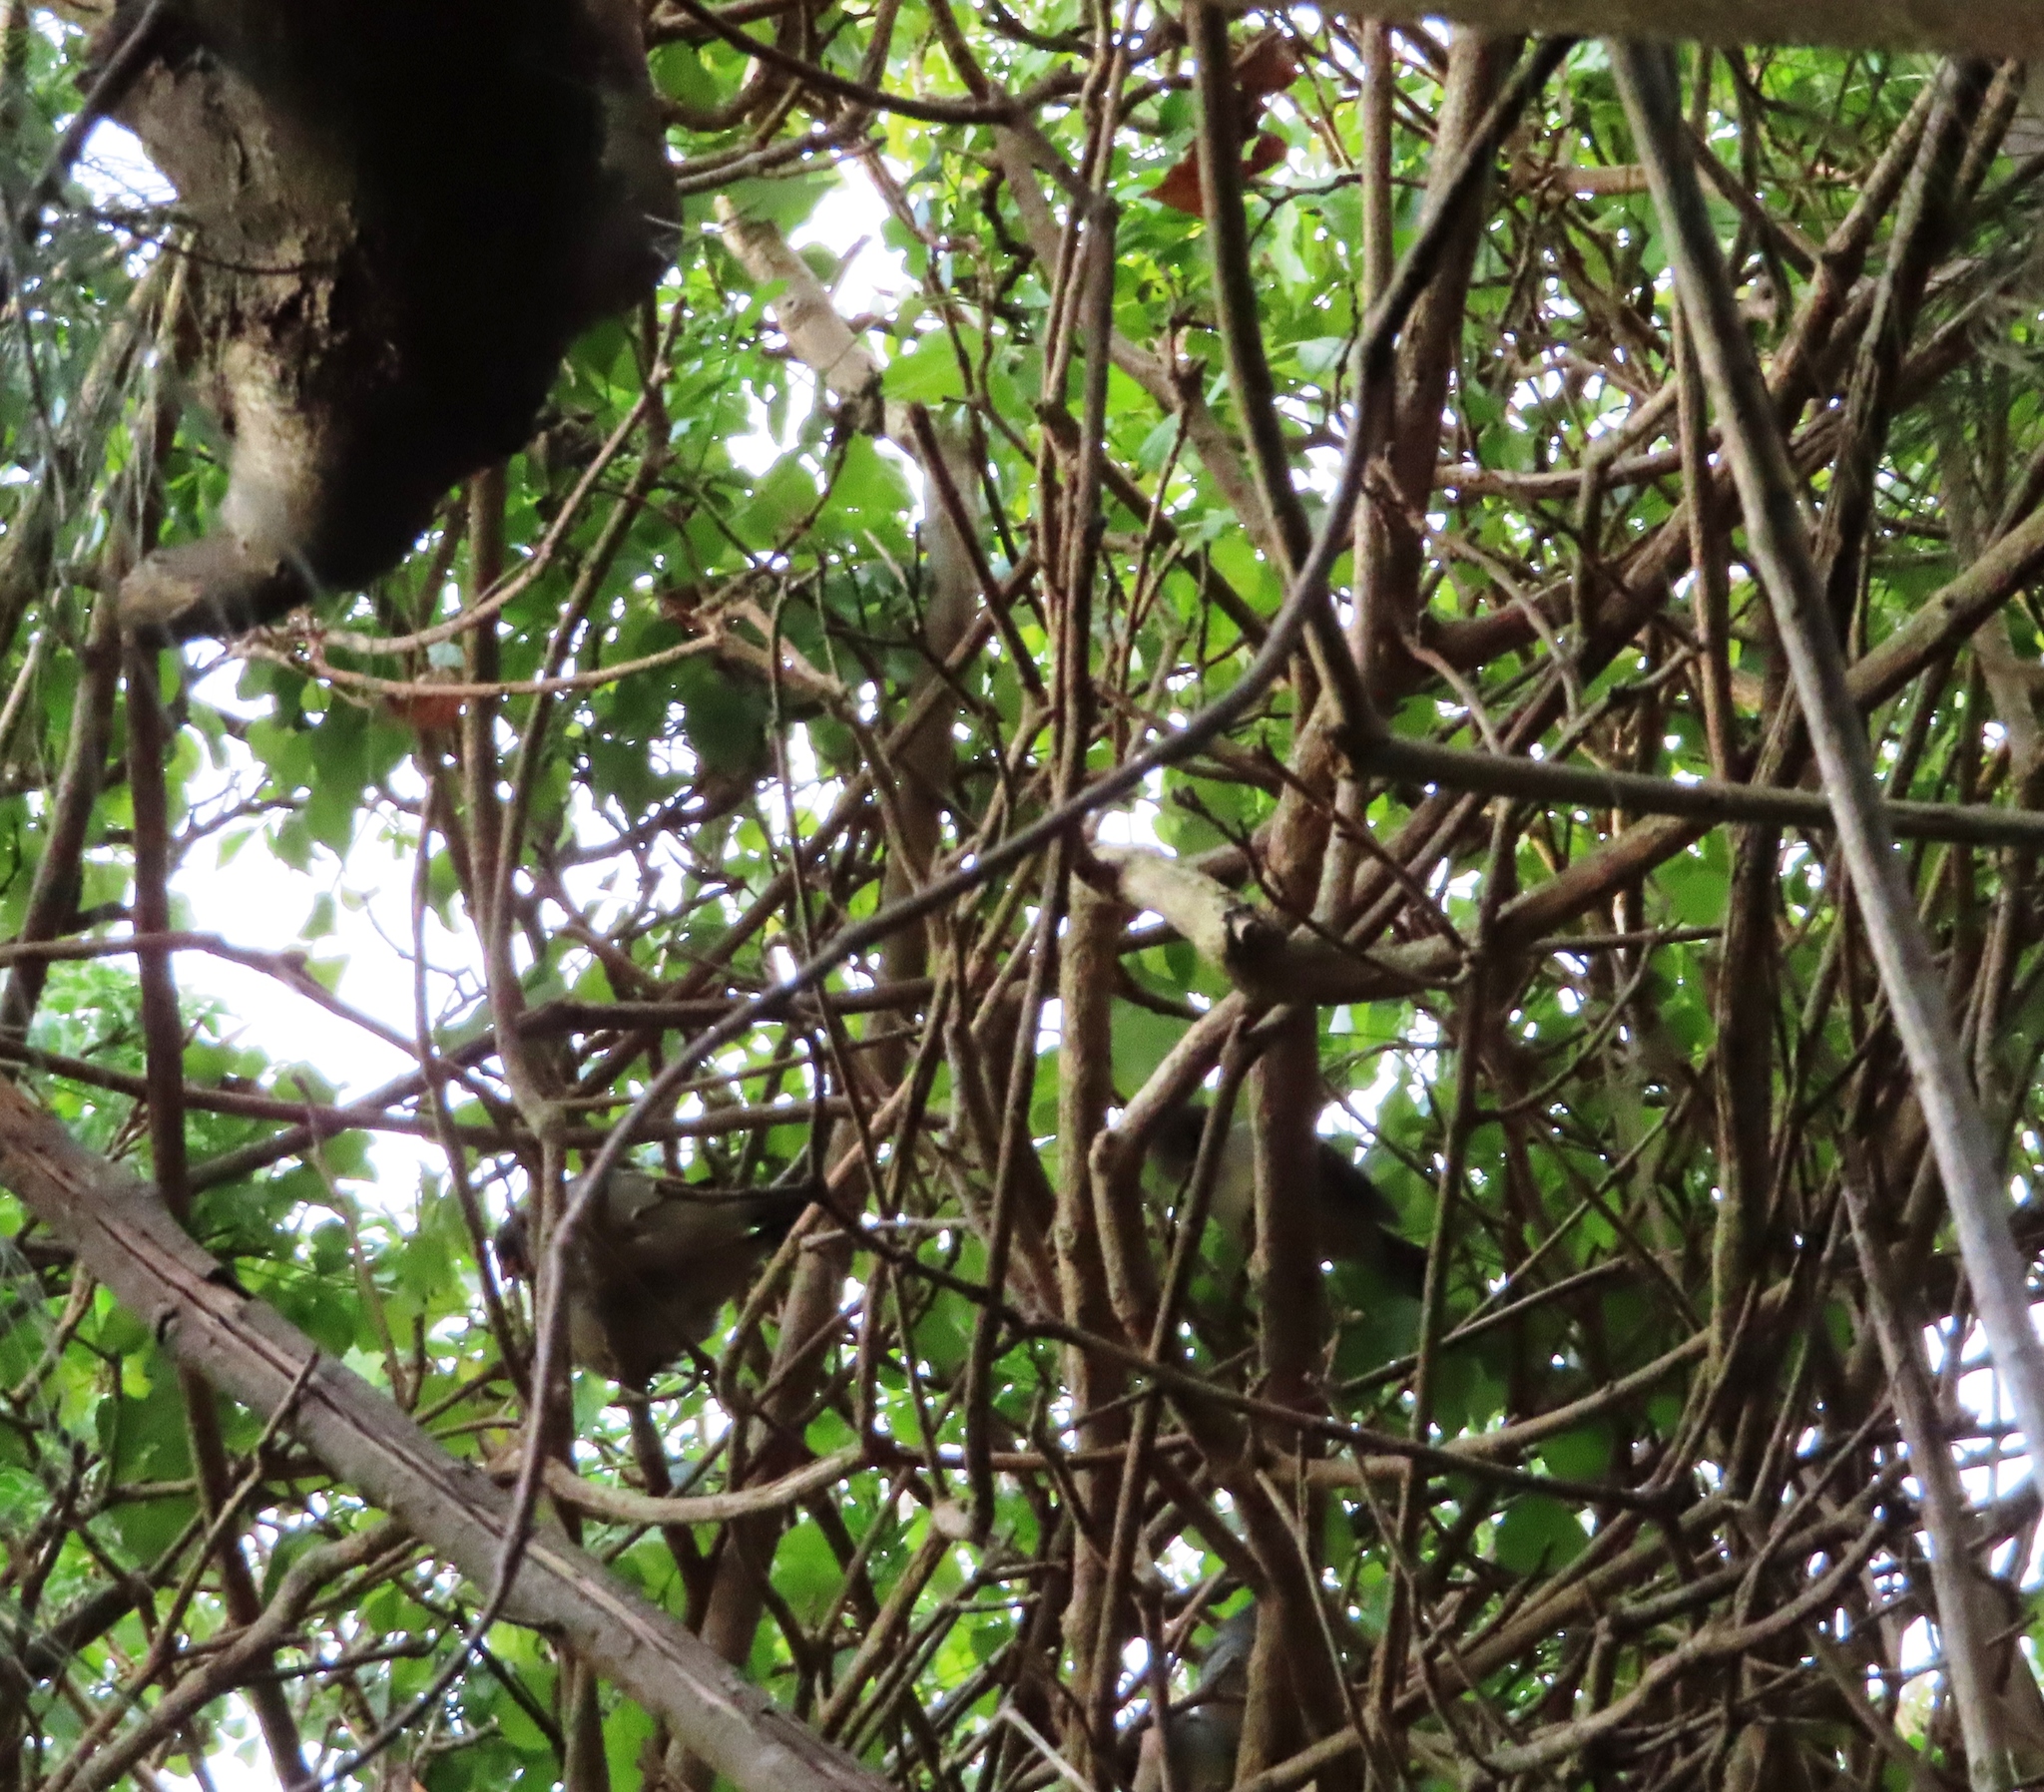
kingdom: Animalia
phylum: Chordata
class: Aves
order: Passeriformes
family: Estrildidae
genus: Coccopygia
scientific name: Coccopygia melanotis
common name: Swee waxbill
